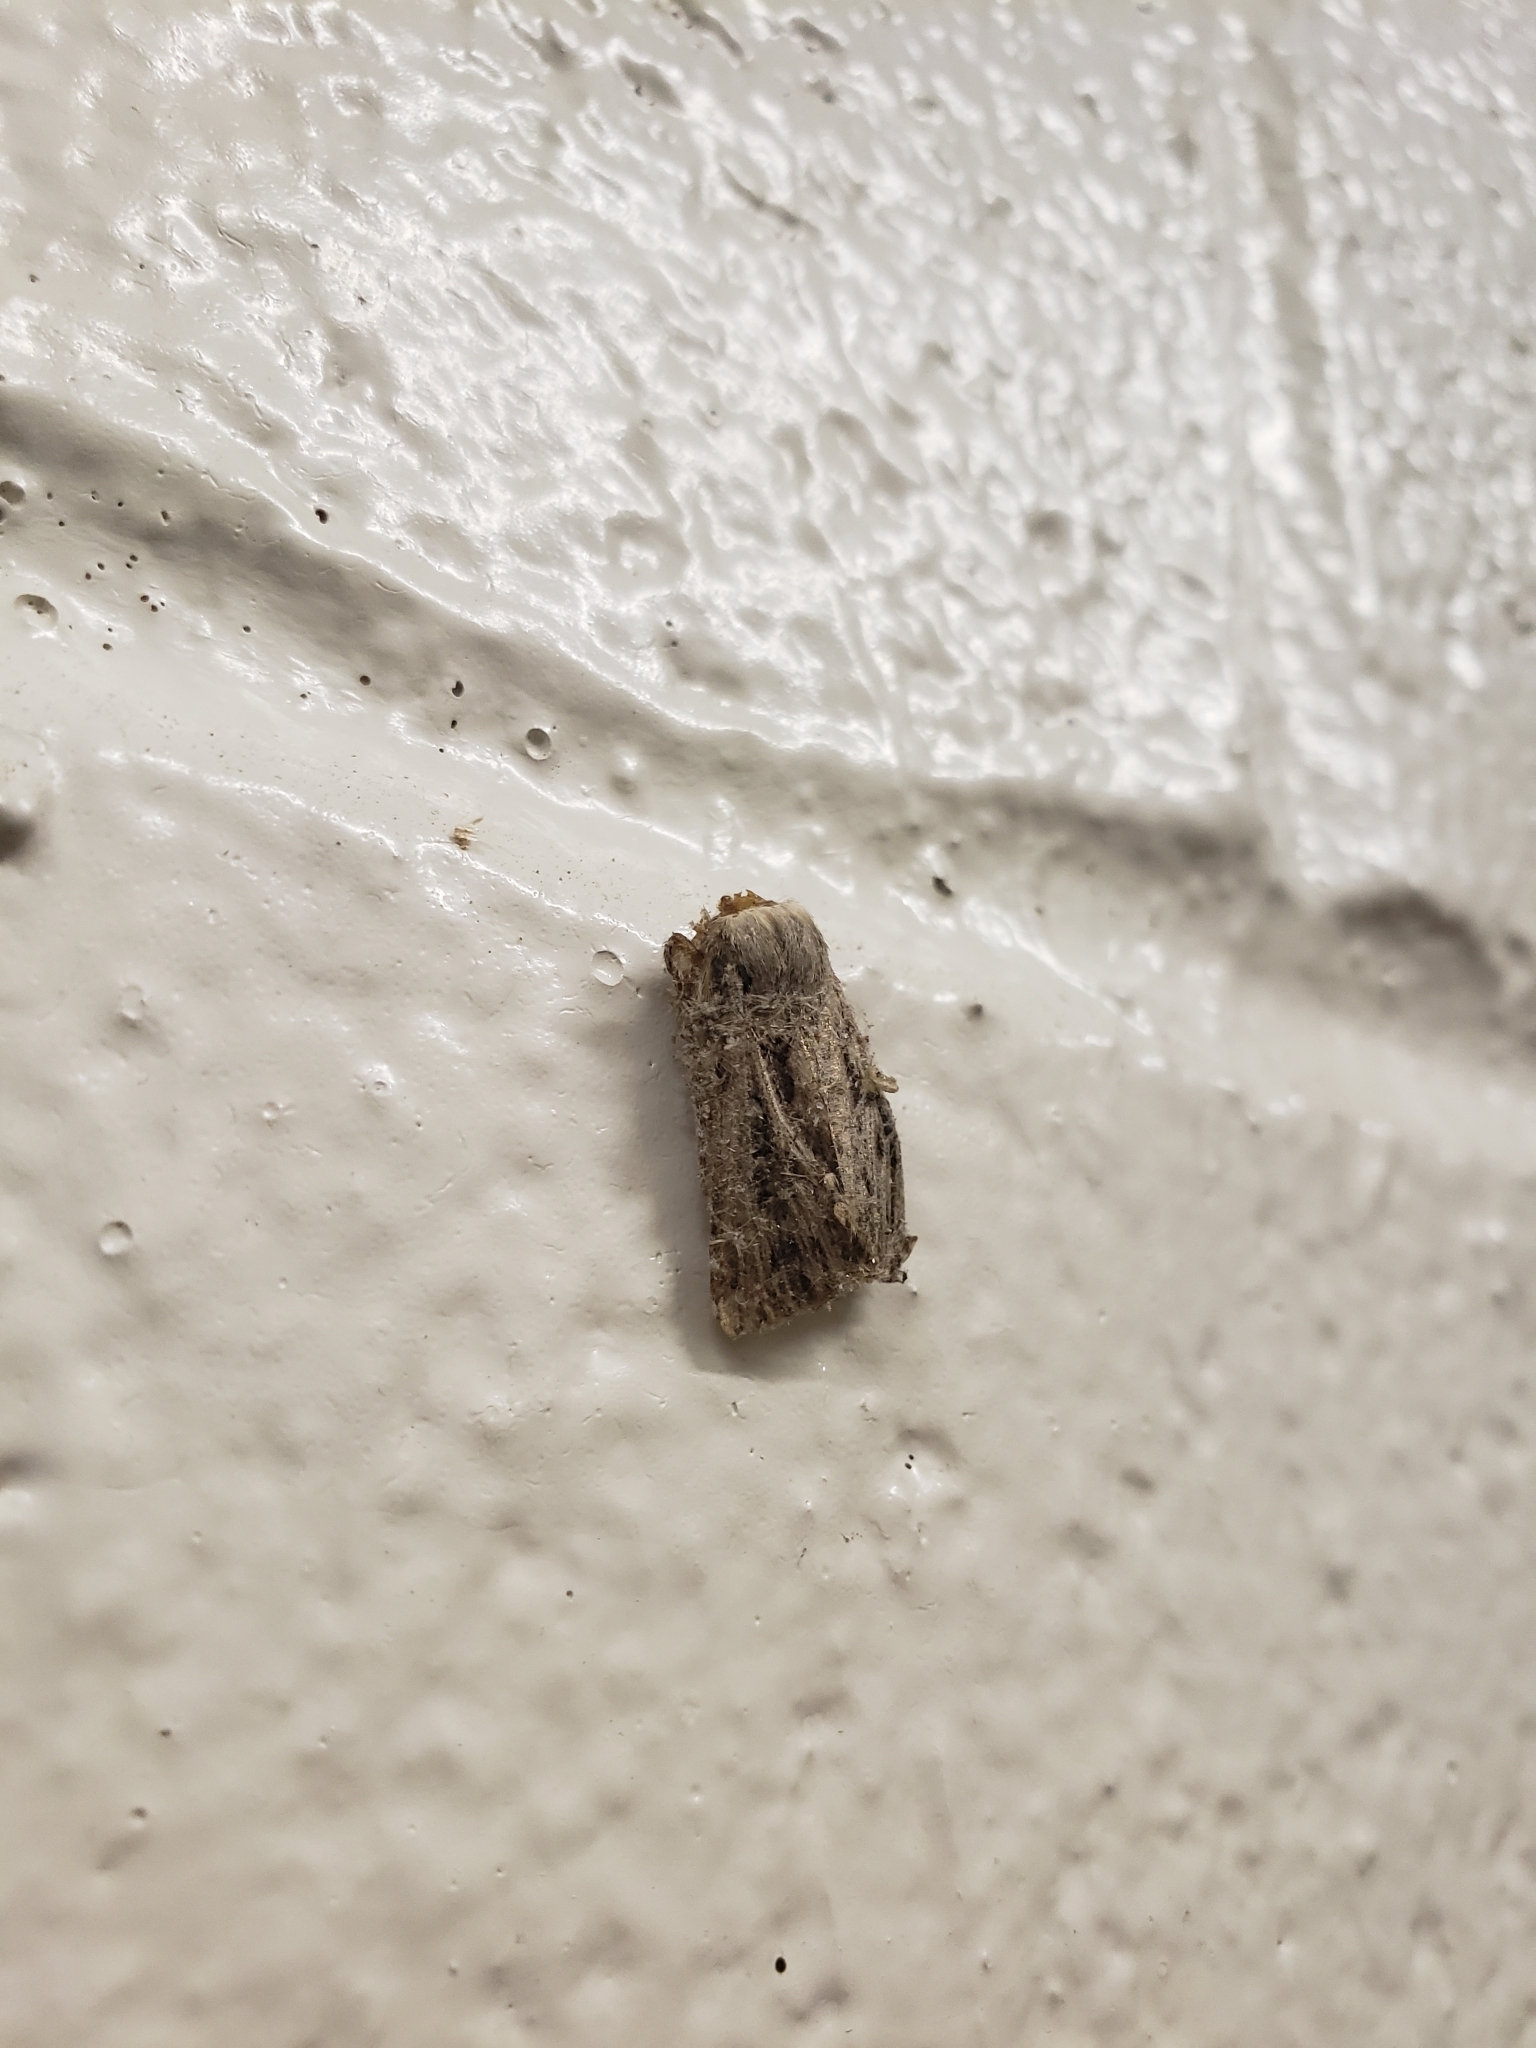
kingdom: Animalia
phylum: Arthropoda
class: Insecta
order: Lepidoptera
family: Noctuidae
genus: Feltia
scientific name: Feltia jaculifera
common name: Dingy cutworm moth
